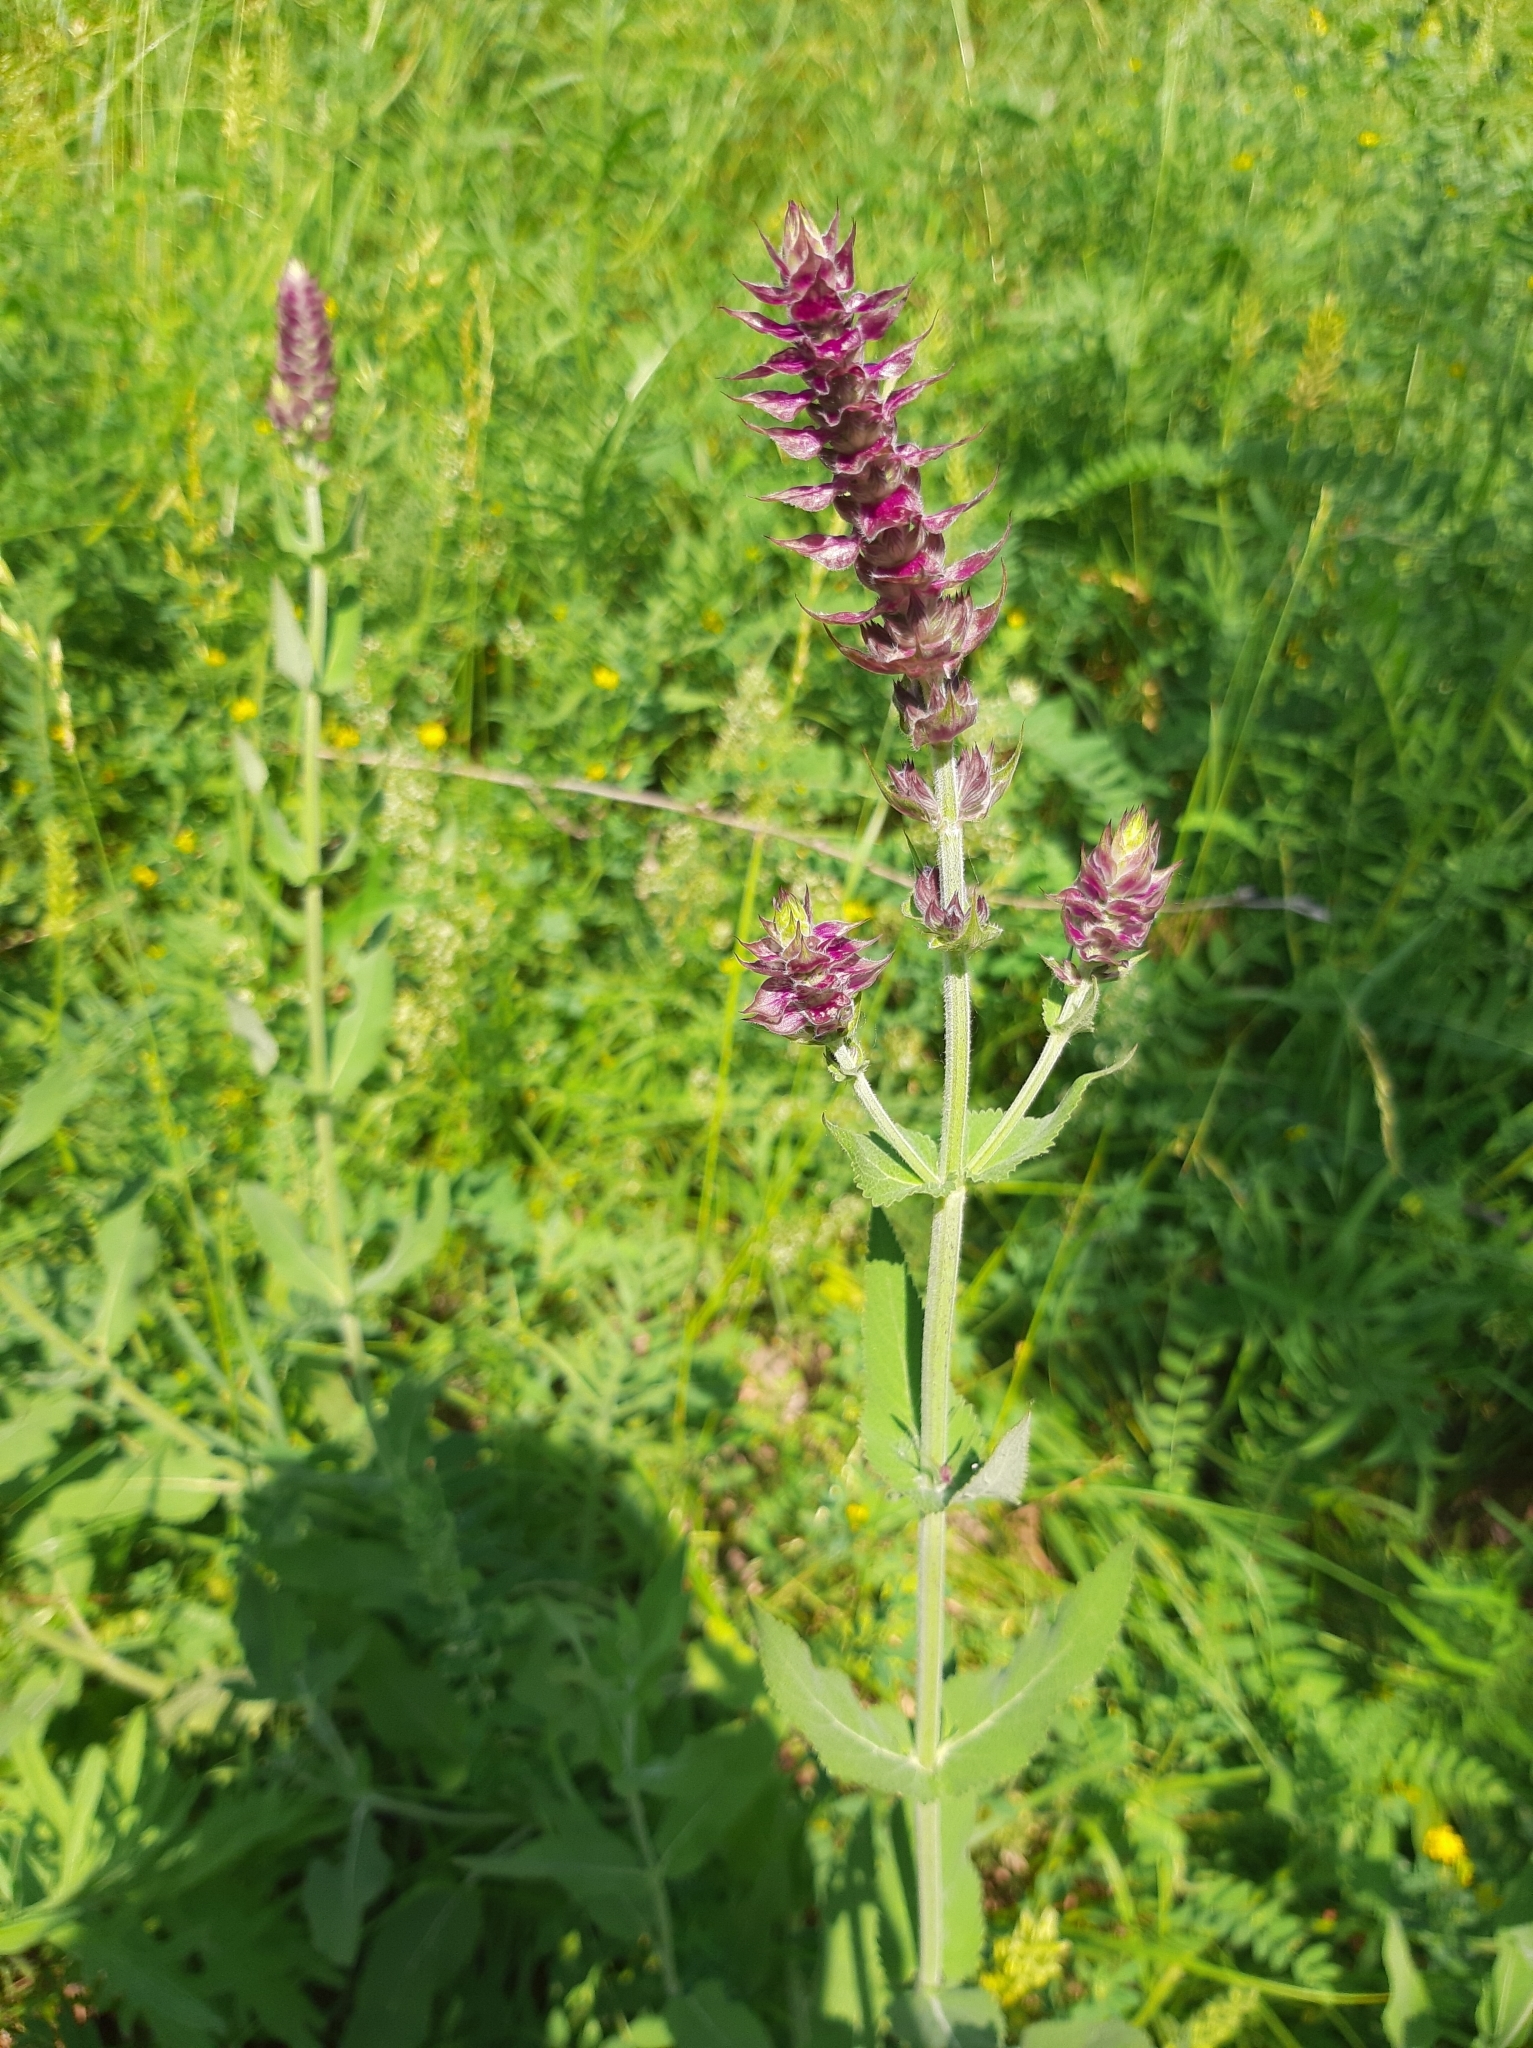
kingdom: Plantae
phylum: Tracheophyta
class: Magnoliopsida
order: Lamiales
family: Lamiaceae
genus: Salvia
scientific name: Salvia nemorosa
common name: Balkan clary
